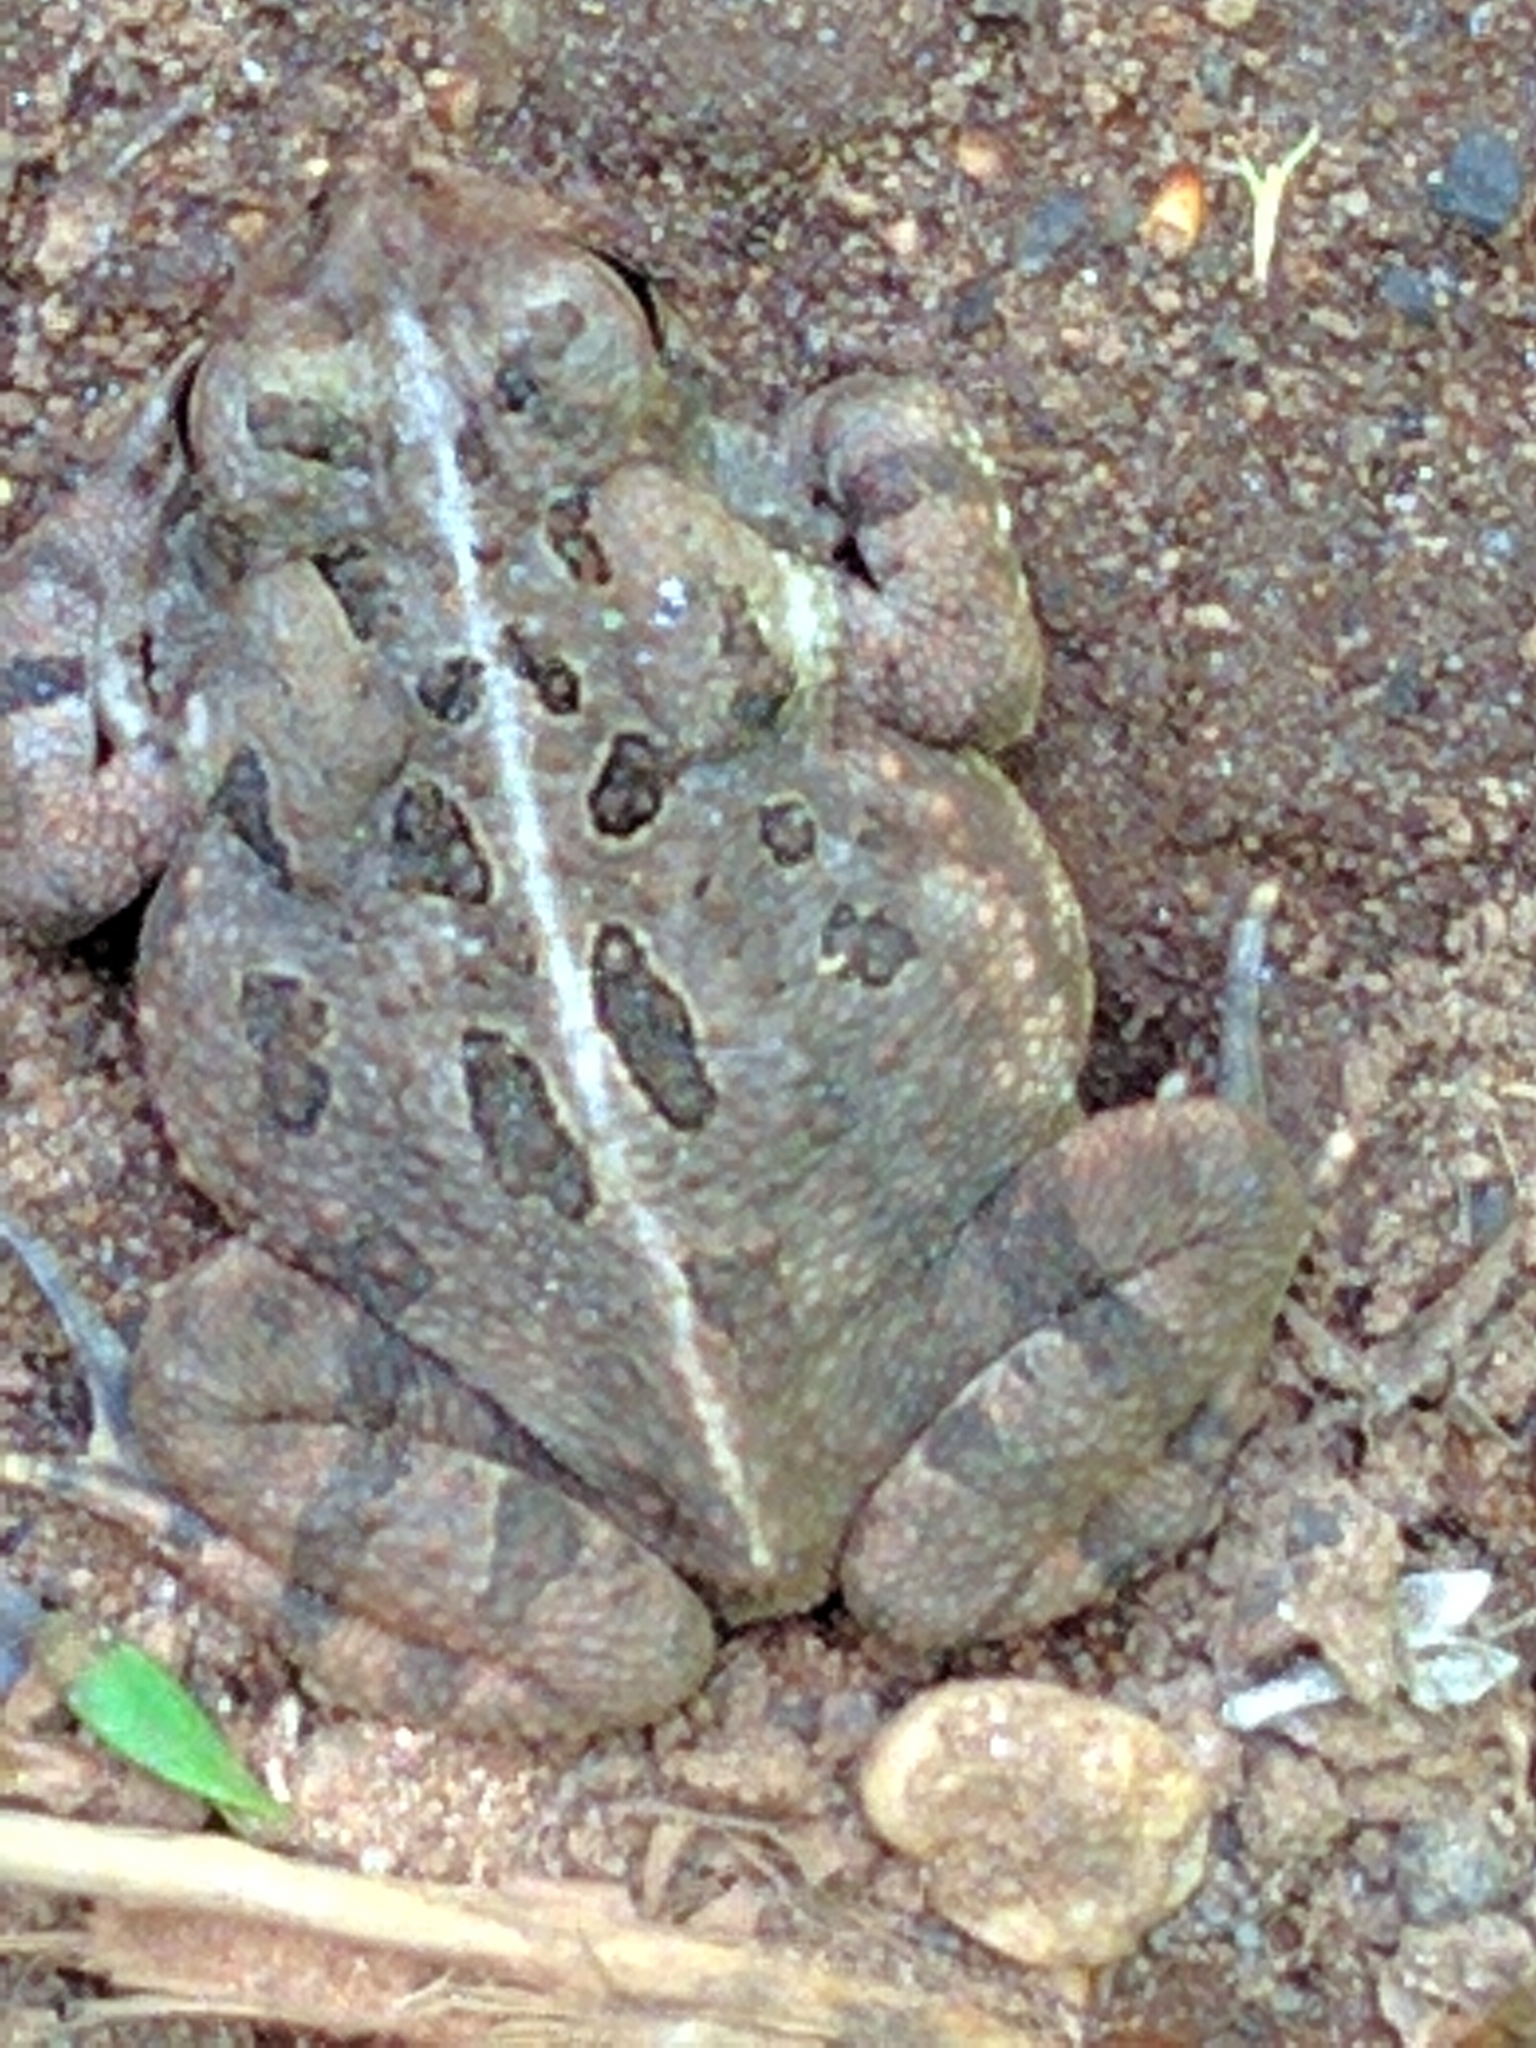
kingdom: Animalia
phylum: Chordata
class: Amphibia
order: Anura
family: Bufonidae
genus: Anaxyrus
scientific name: Anaxyrus fowleri
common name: Fowler's toad
